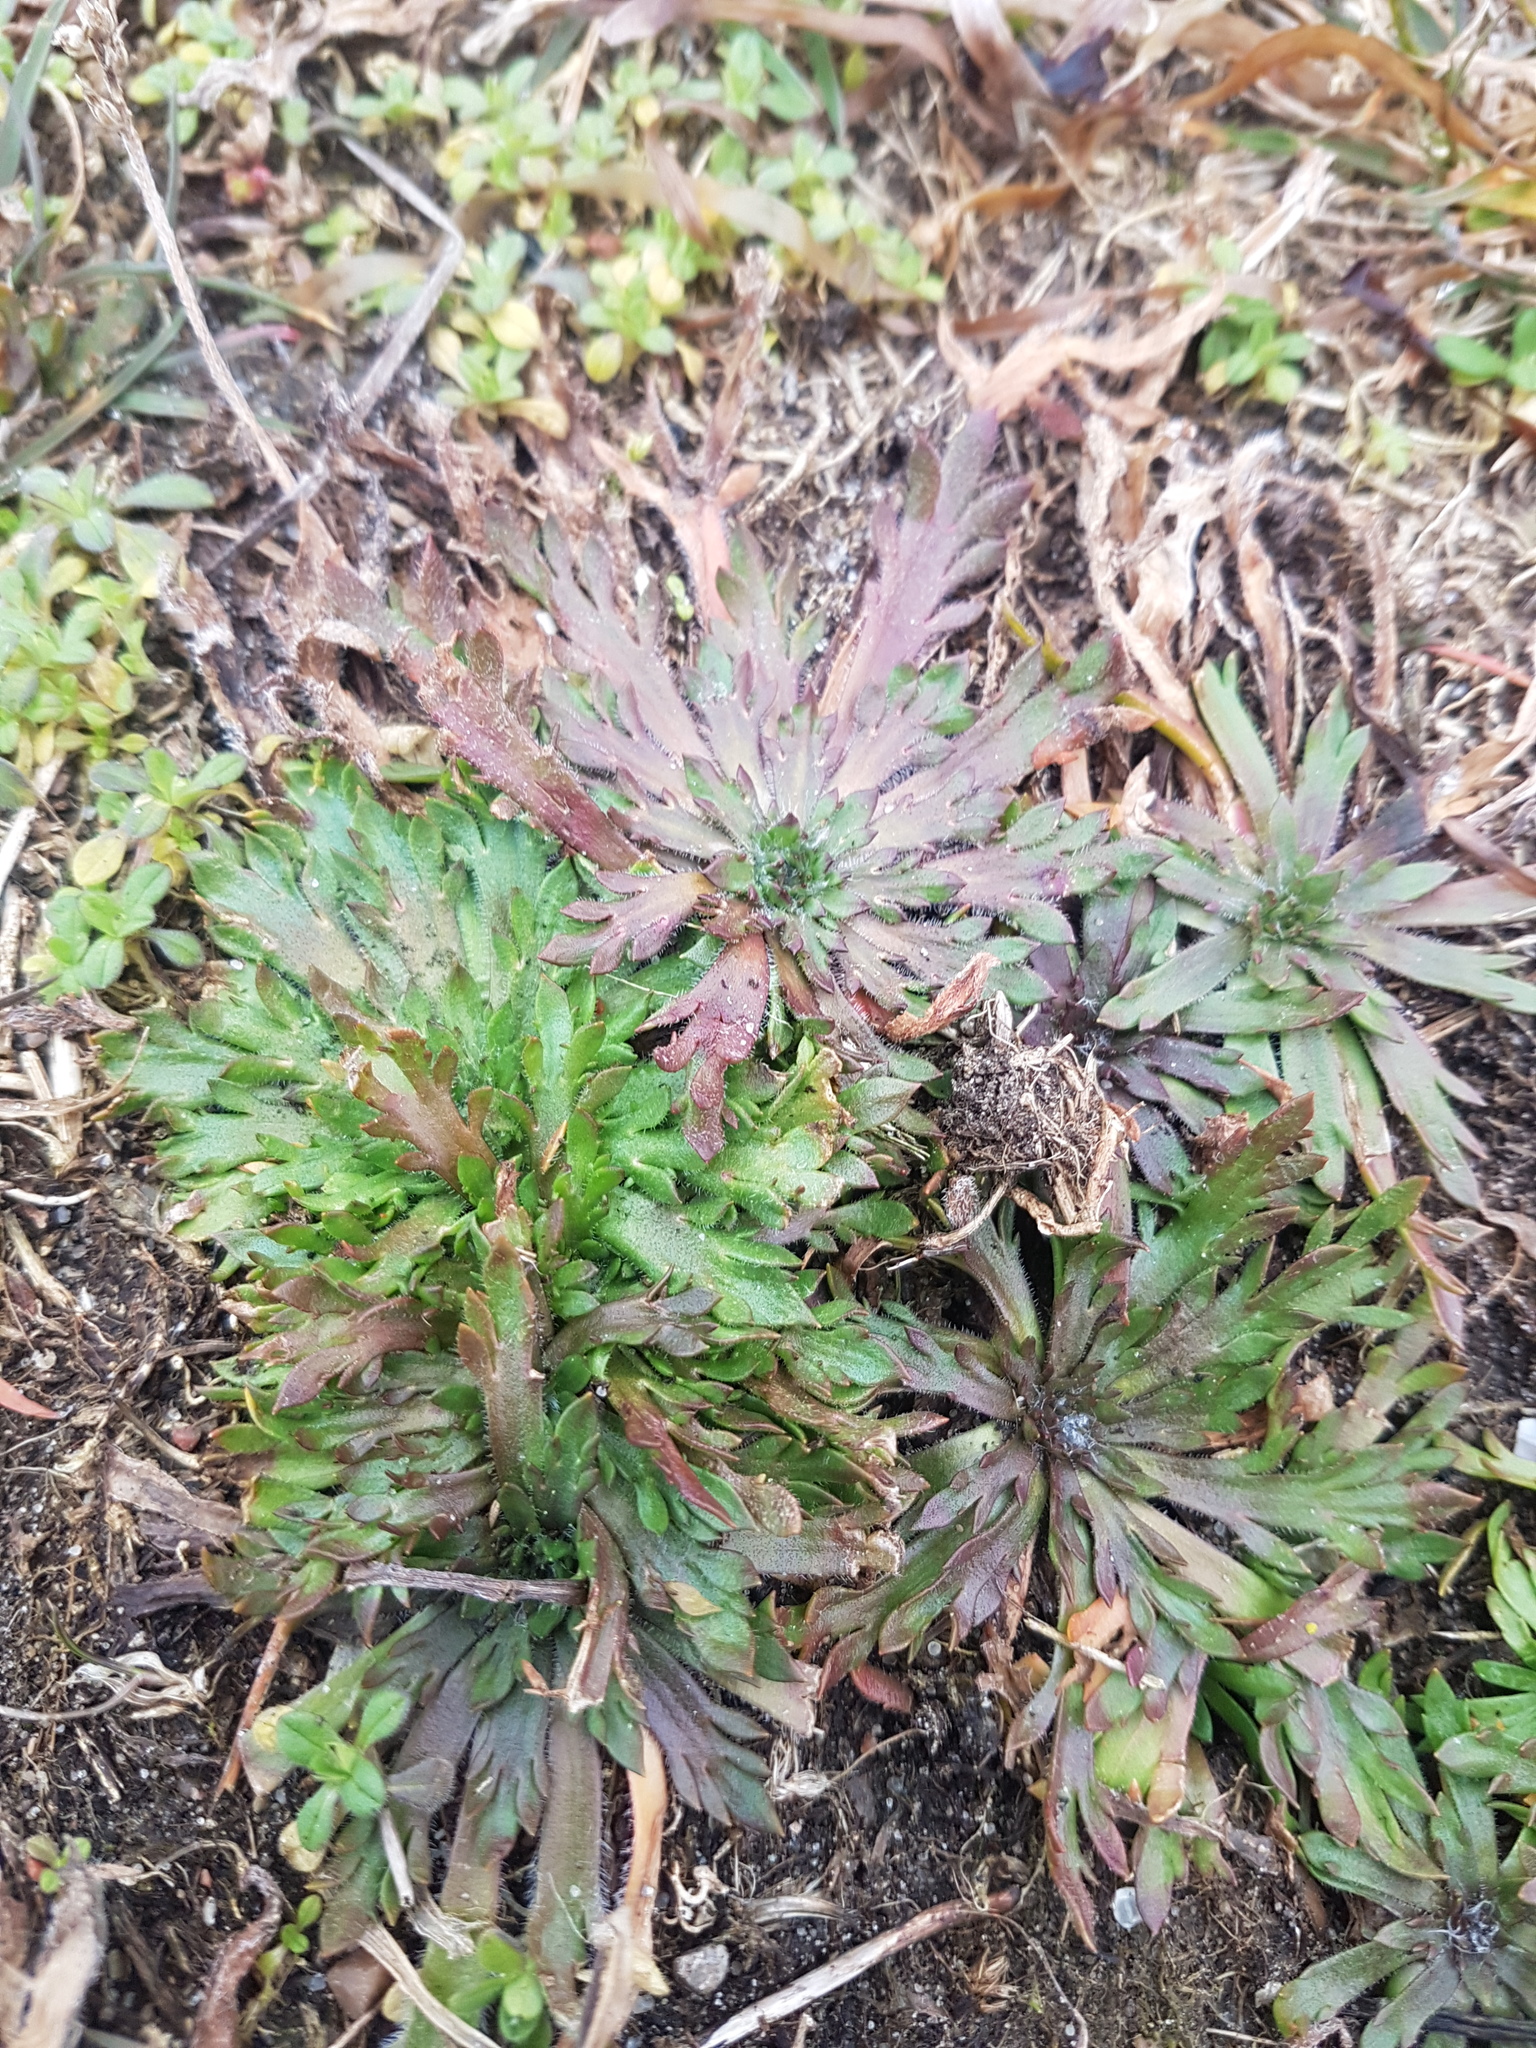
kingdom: Plantae
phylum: Tracheophyta
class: Magnoliopsida
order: Lamiales
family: Plantaginaceae
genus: Plantago
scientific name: Plantago coronopus
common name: Buck's-horn plantain
